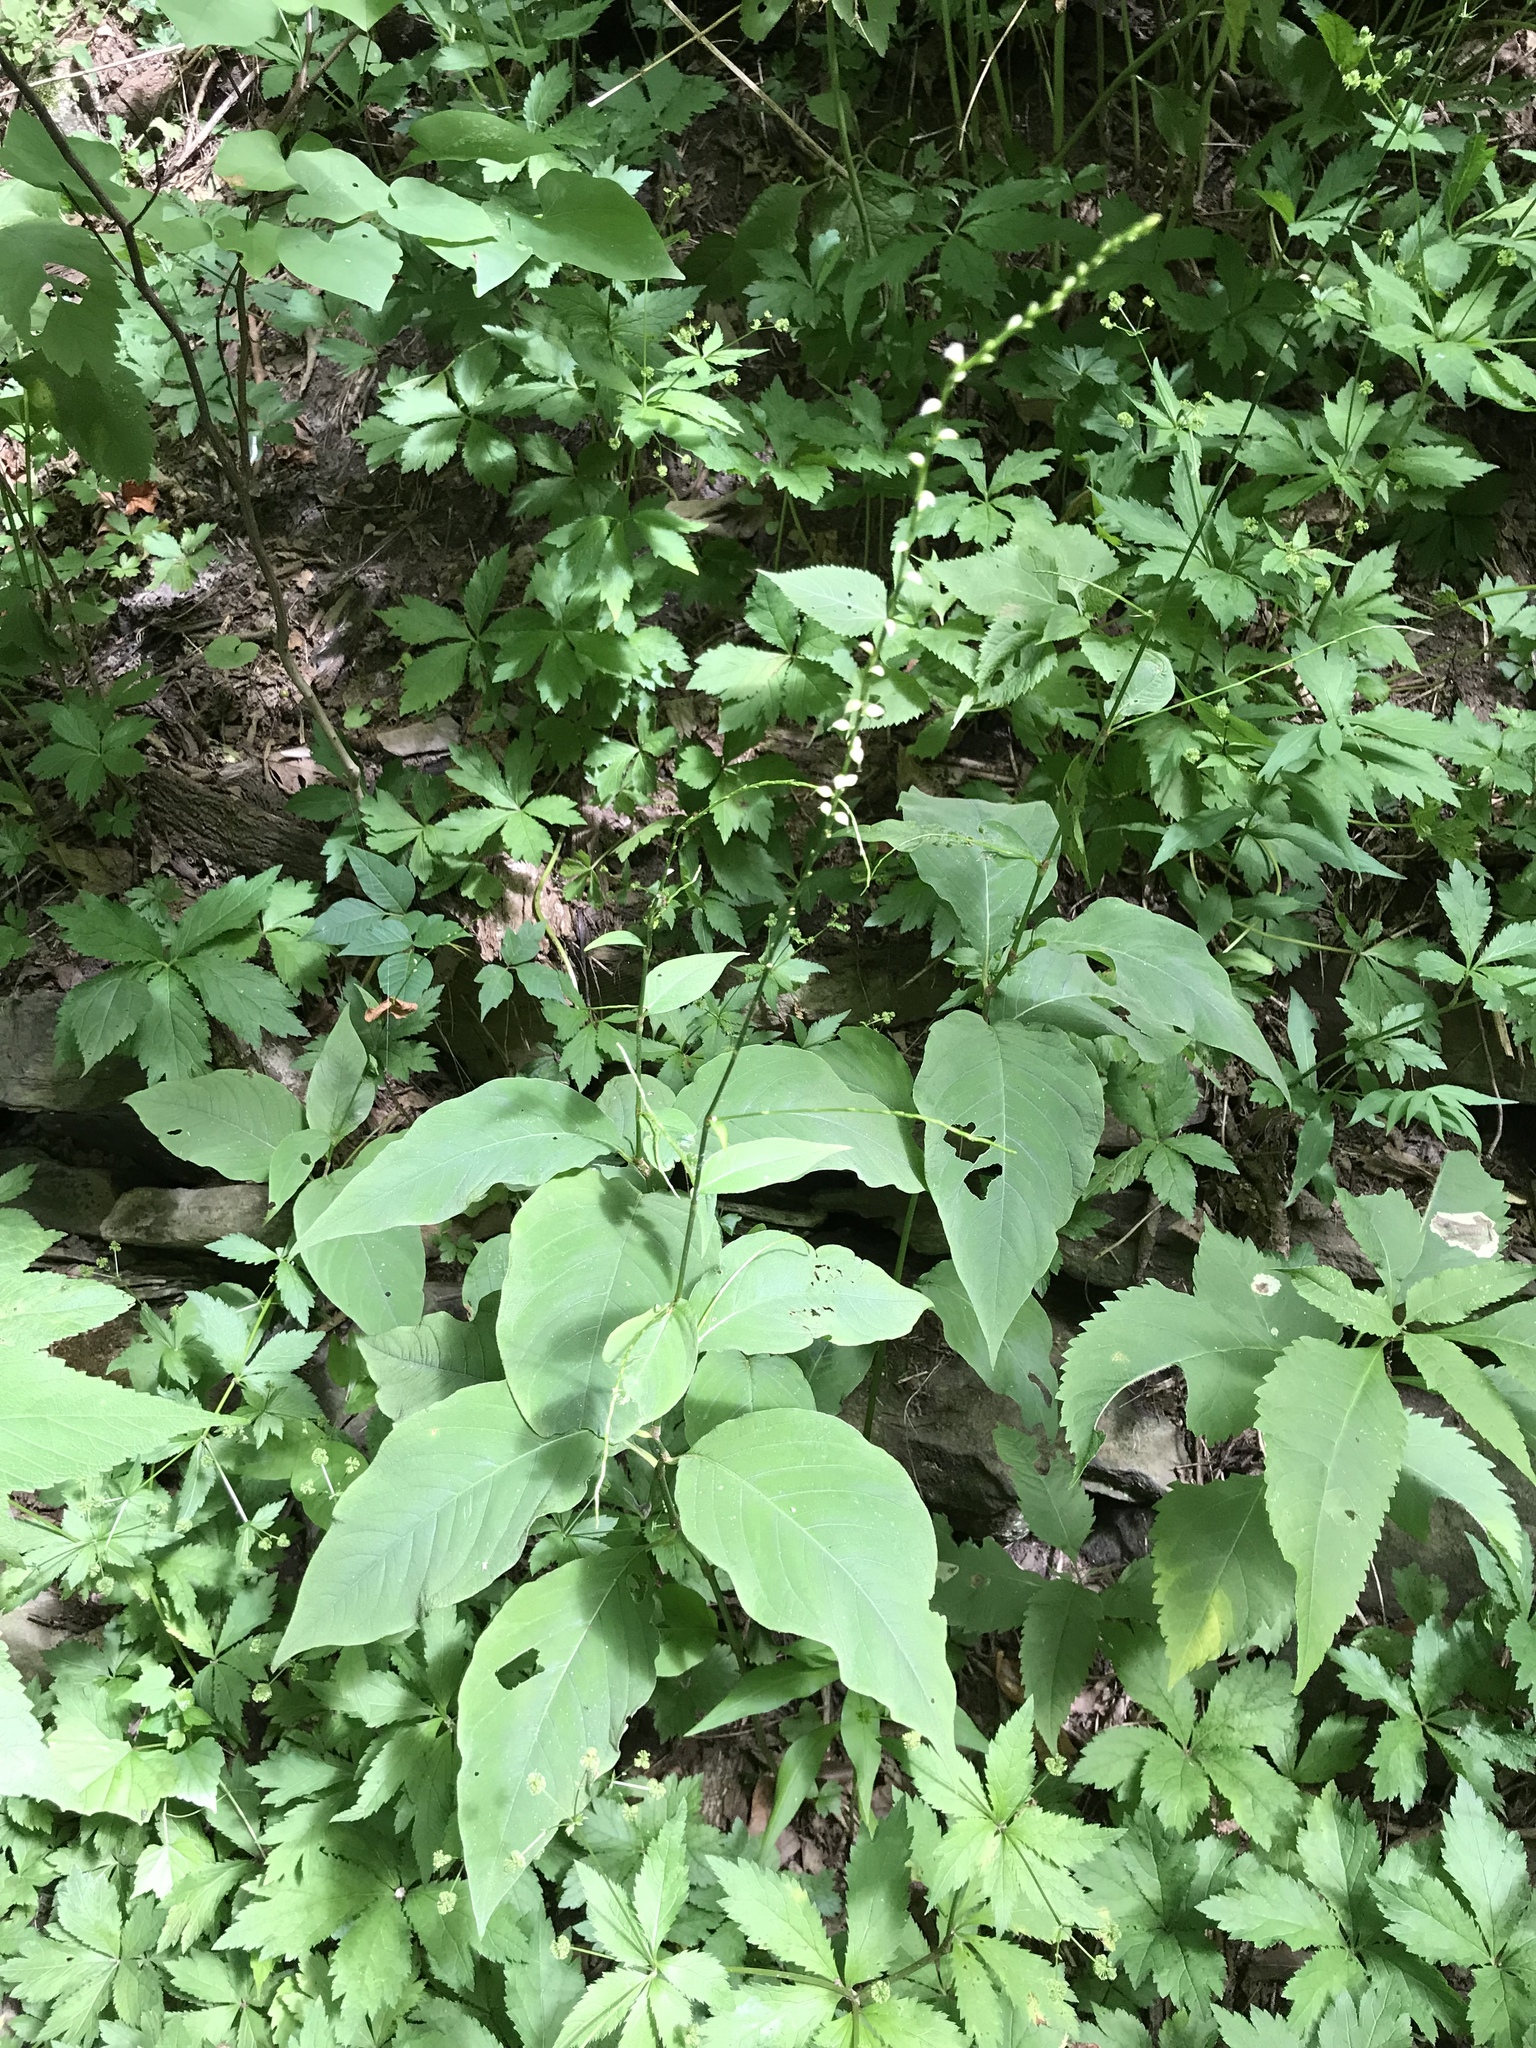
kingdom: Plantae
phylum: Tracheophyta
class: Magnoliopsida
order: Caryophyllales
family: Polygonaceae
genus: Persicaria
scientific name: Persicaria virginiana
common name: Jumpseed
